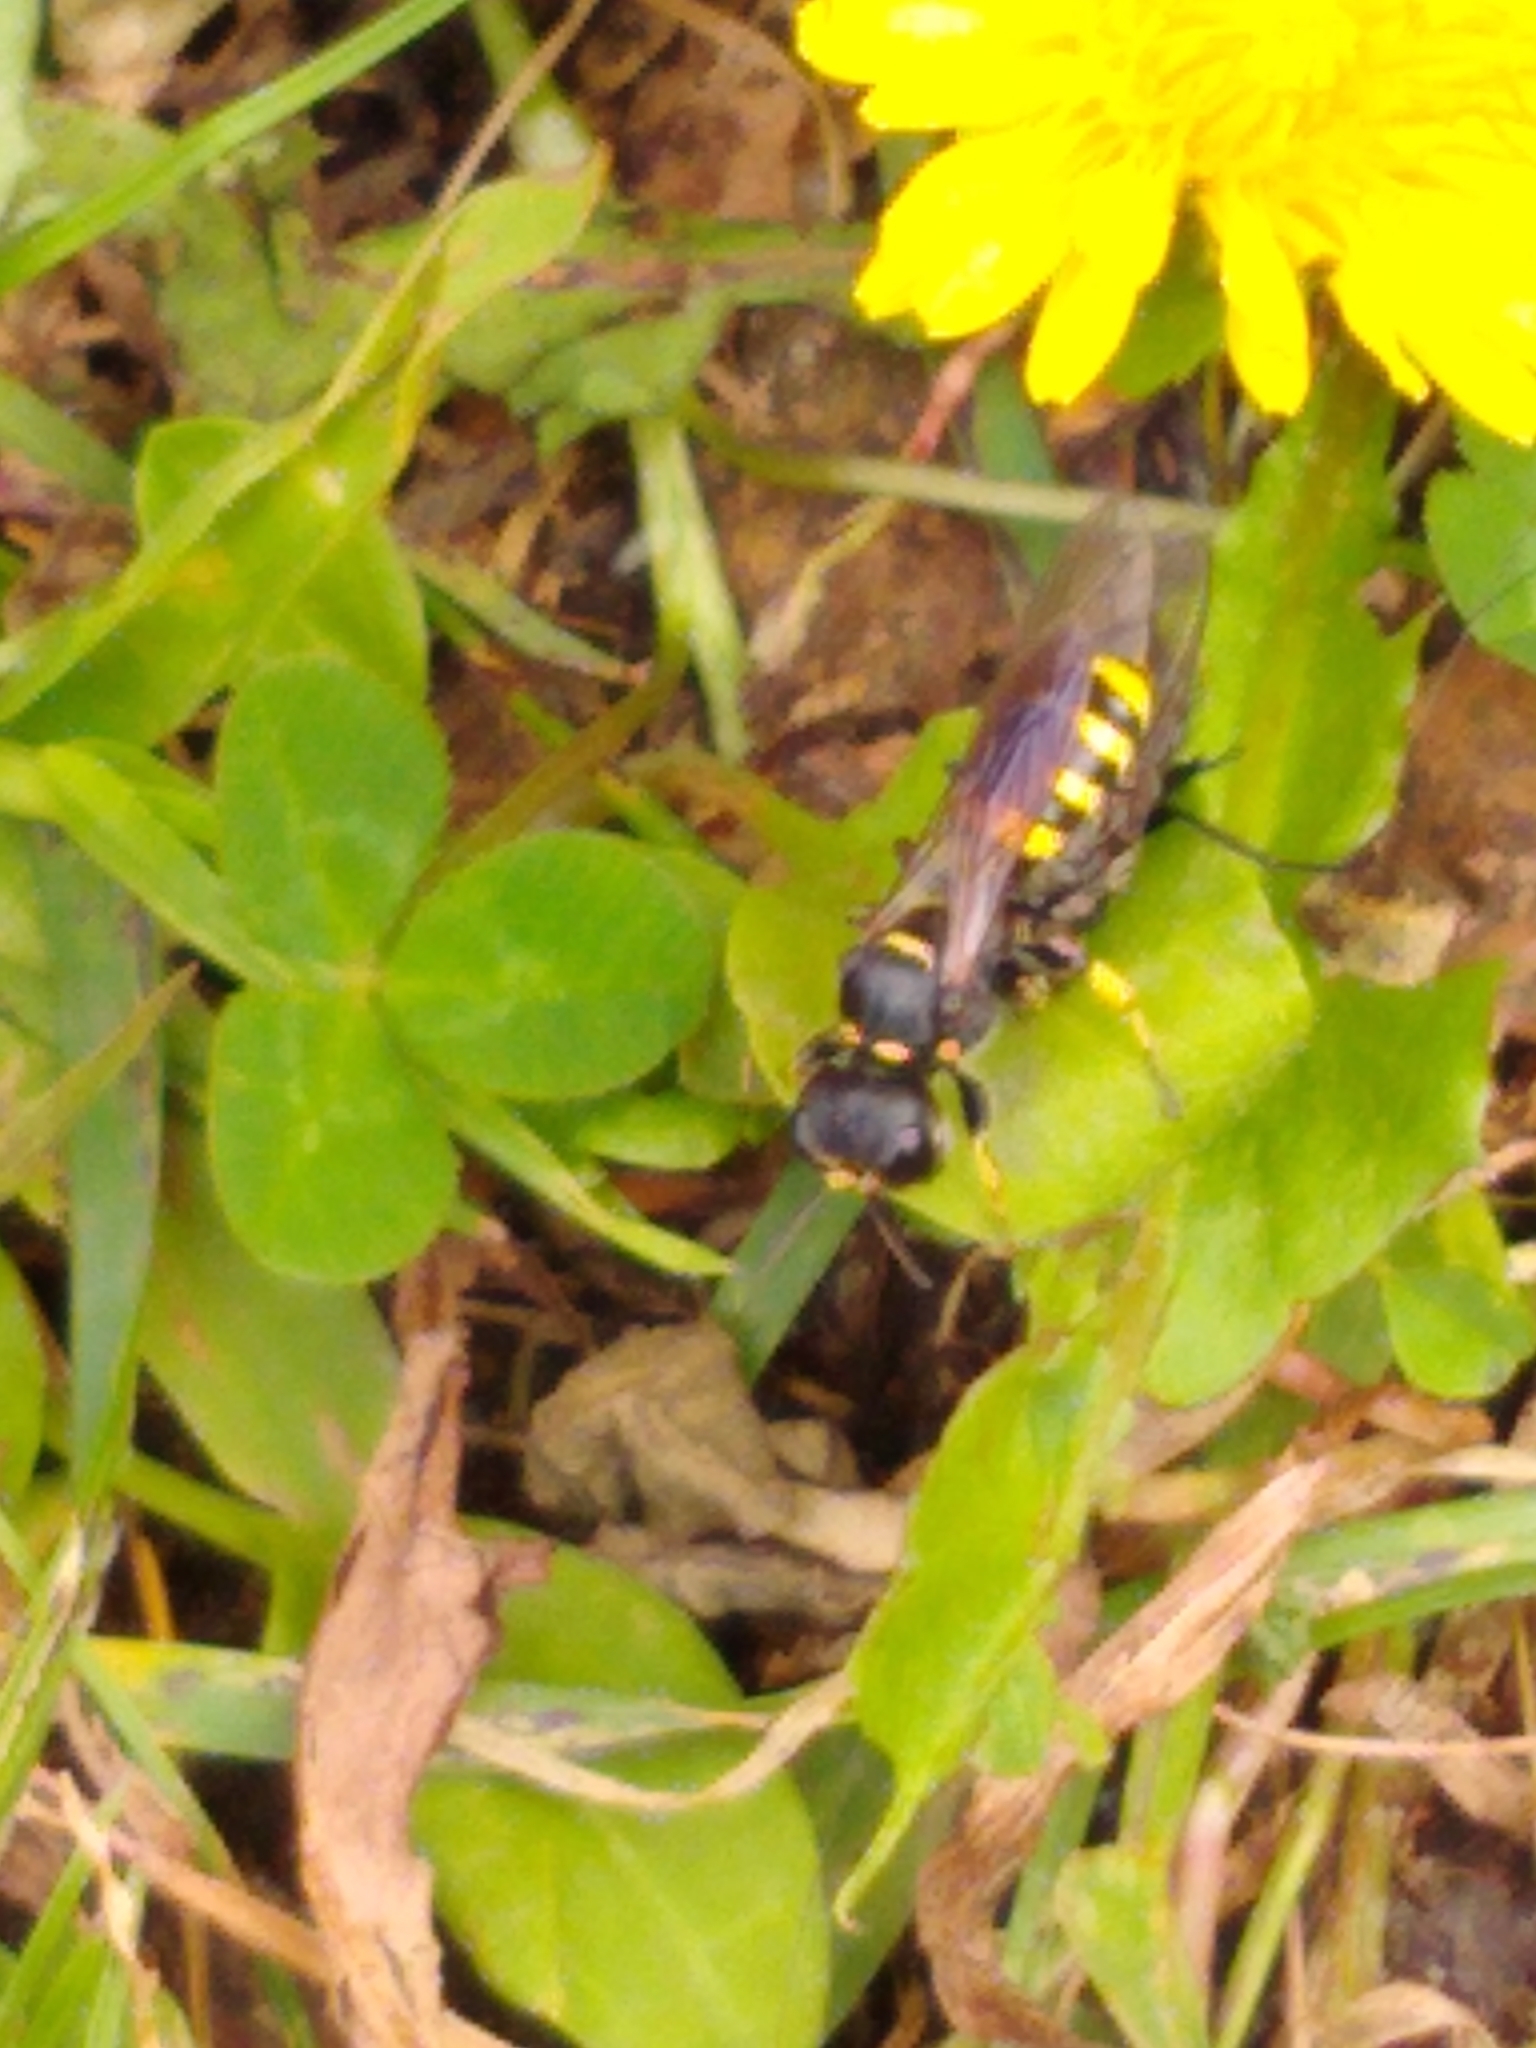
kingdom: Animalia
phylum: Arthropoda
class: Insecta
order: Hymenoptera
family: Crabronidae
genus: Ectemnius
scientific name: Ectemnius cephalotes
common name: Sphecid wasp
